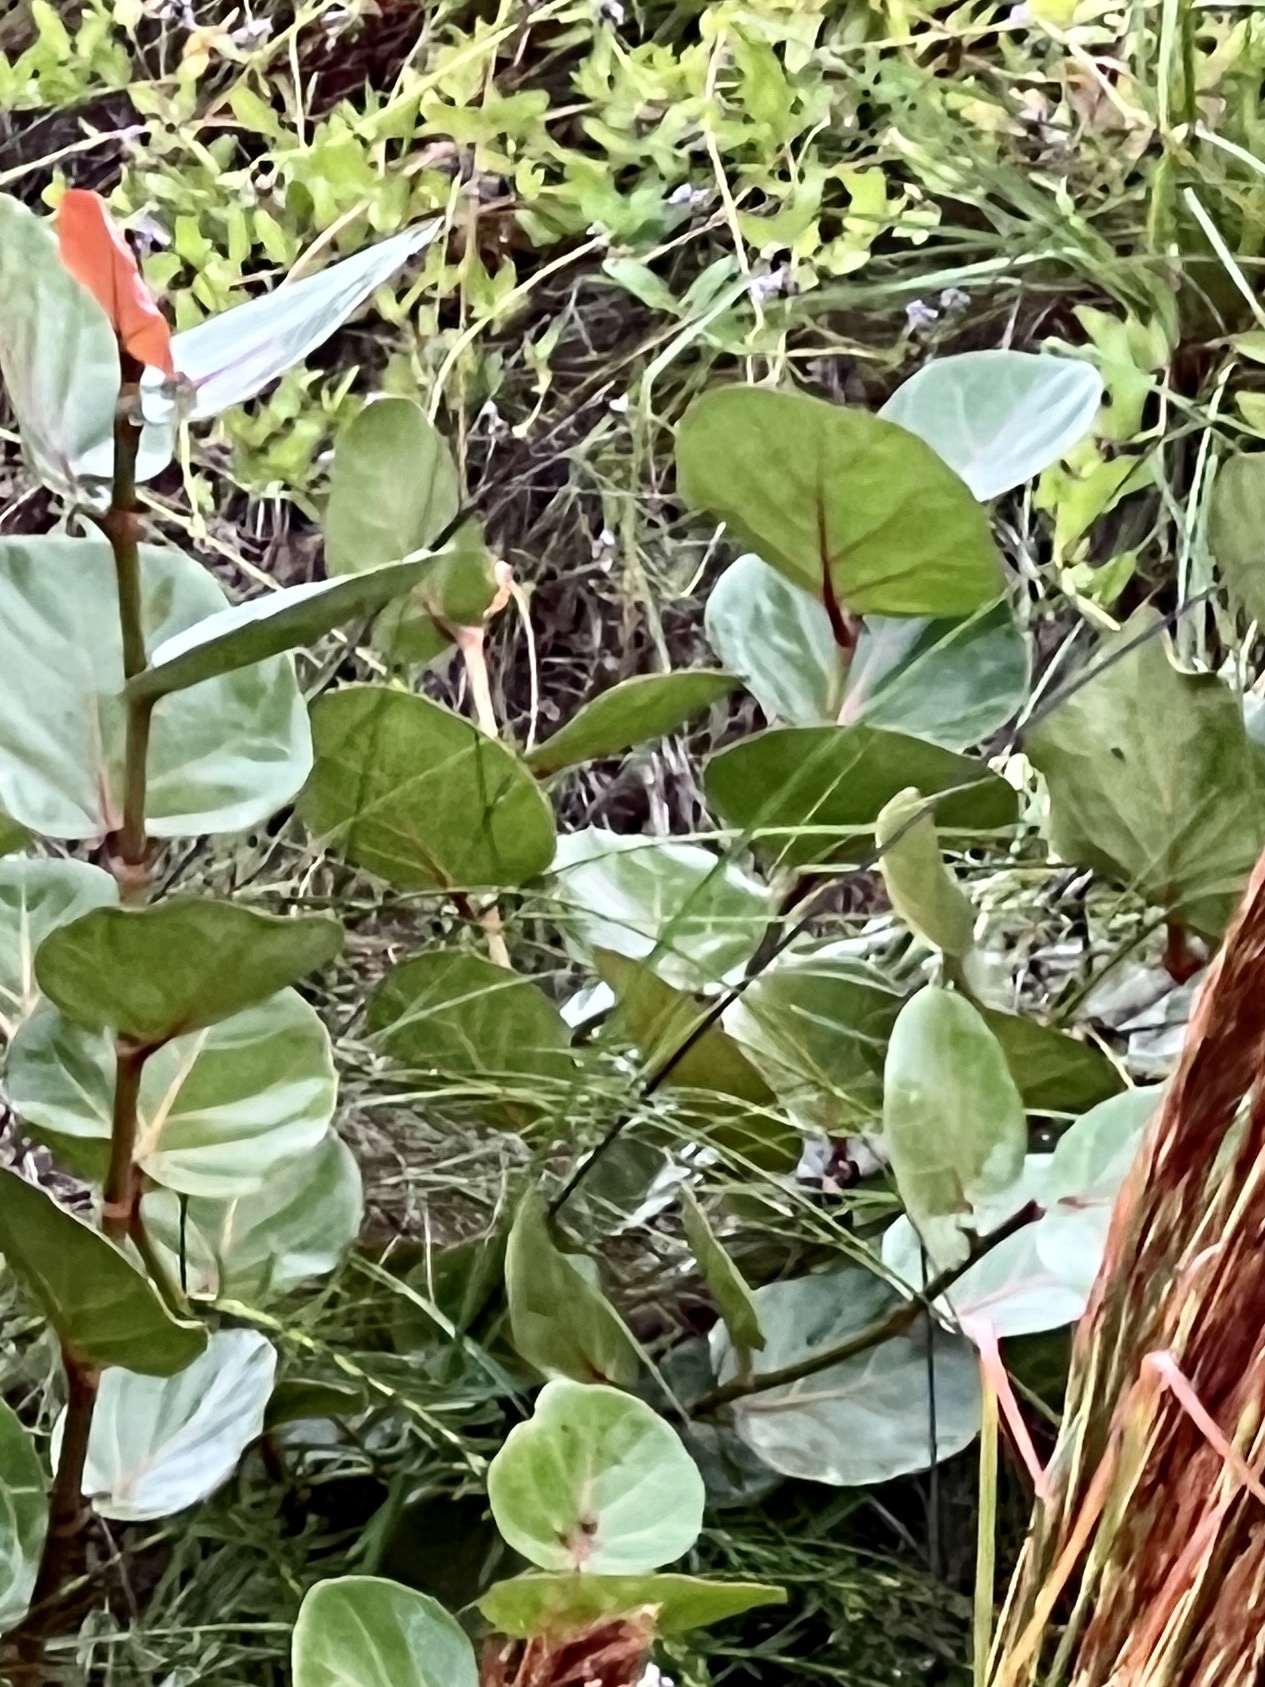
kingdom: Plantae
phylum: Tracheophyta
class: Magnoliopsida
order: Caryophyllales
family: Polygonaceae
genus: Coccoloba
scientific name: Coccoloba uvifera
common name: Seagrape
